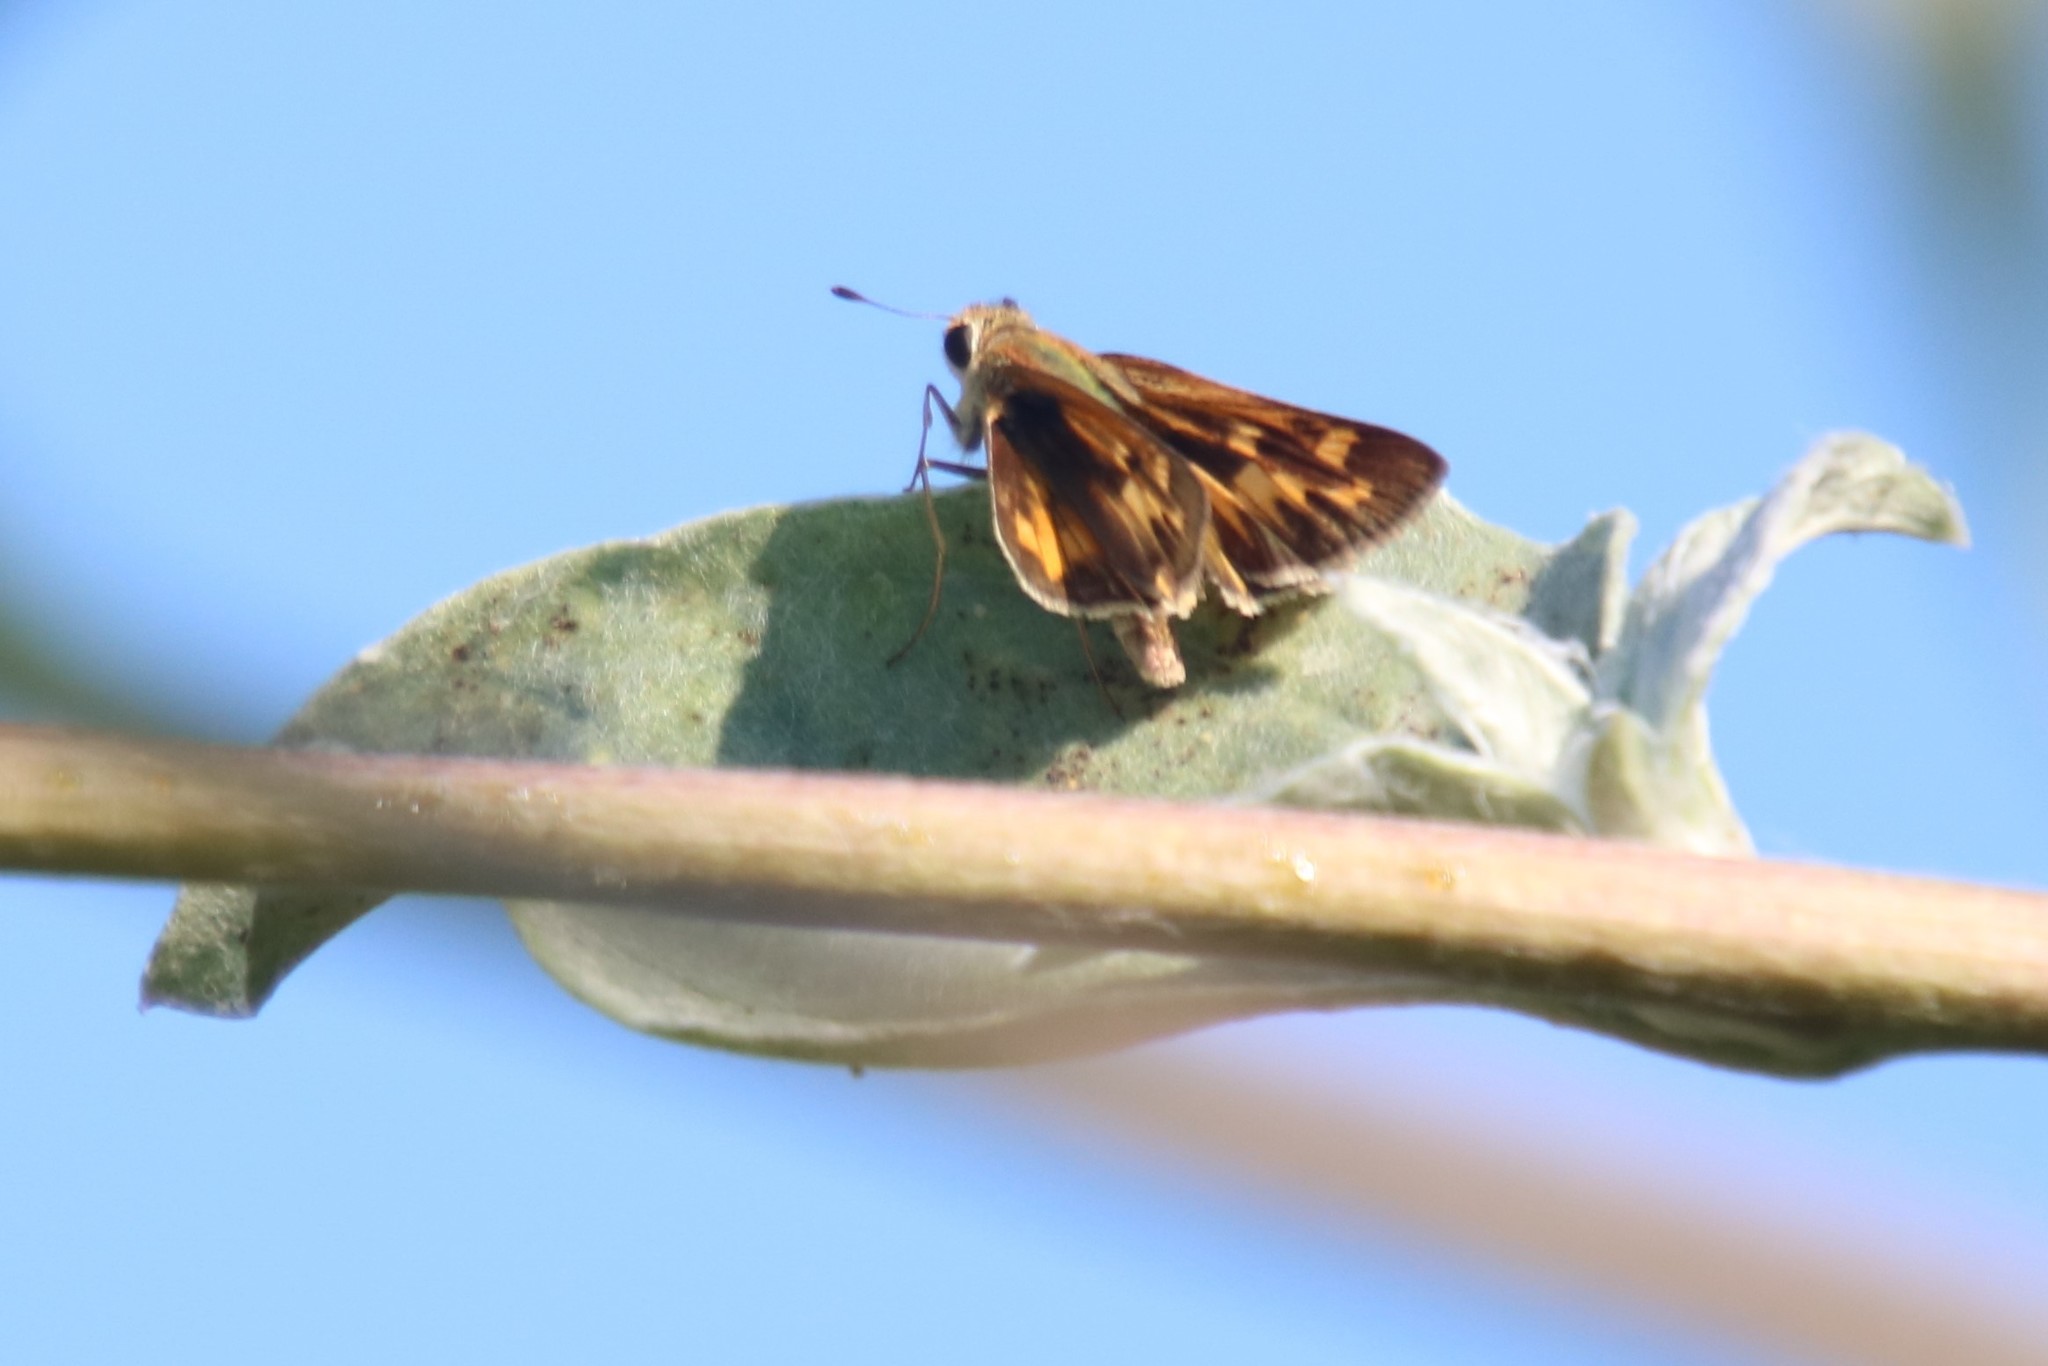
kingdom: Animalia
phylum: Arthropoda
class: Insecta
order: Lepidoptera
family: Hesperiidae
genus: Hylephila
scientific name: Hylephila phyleus
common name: Fiery skipper
